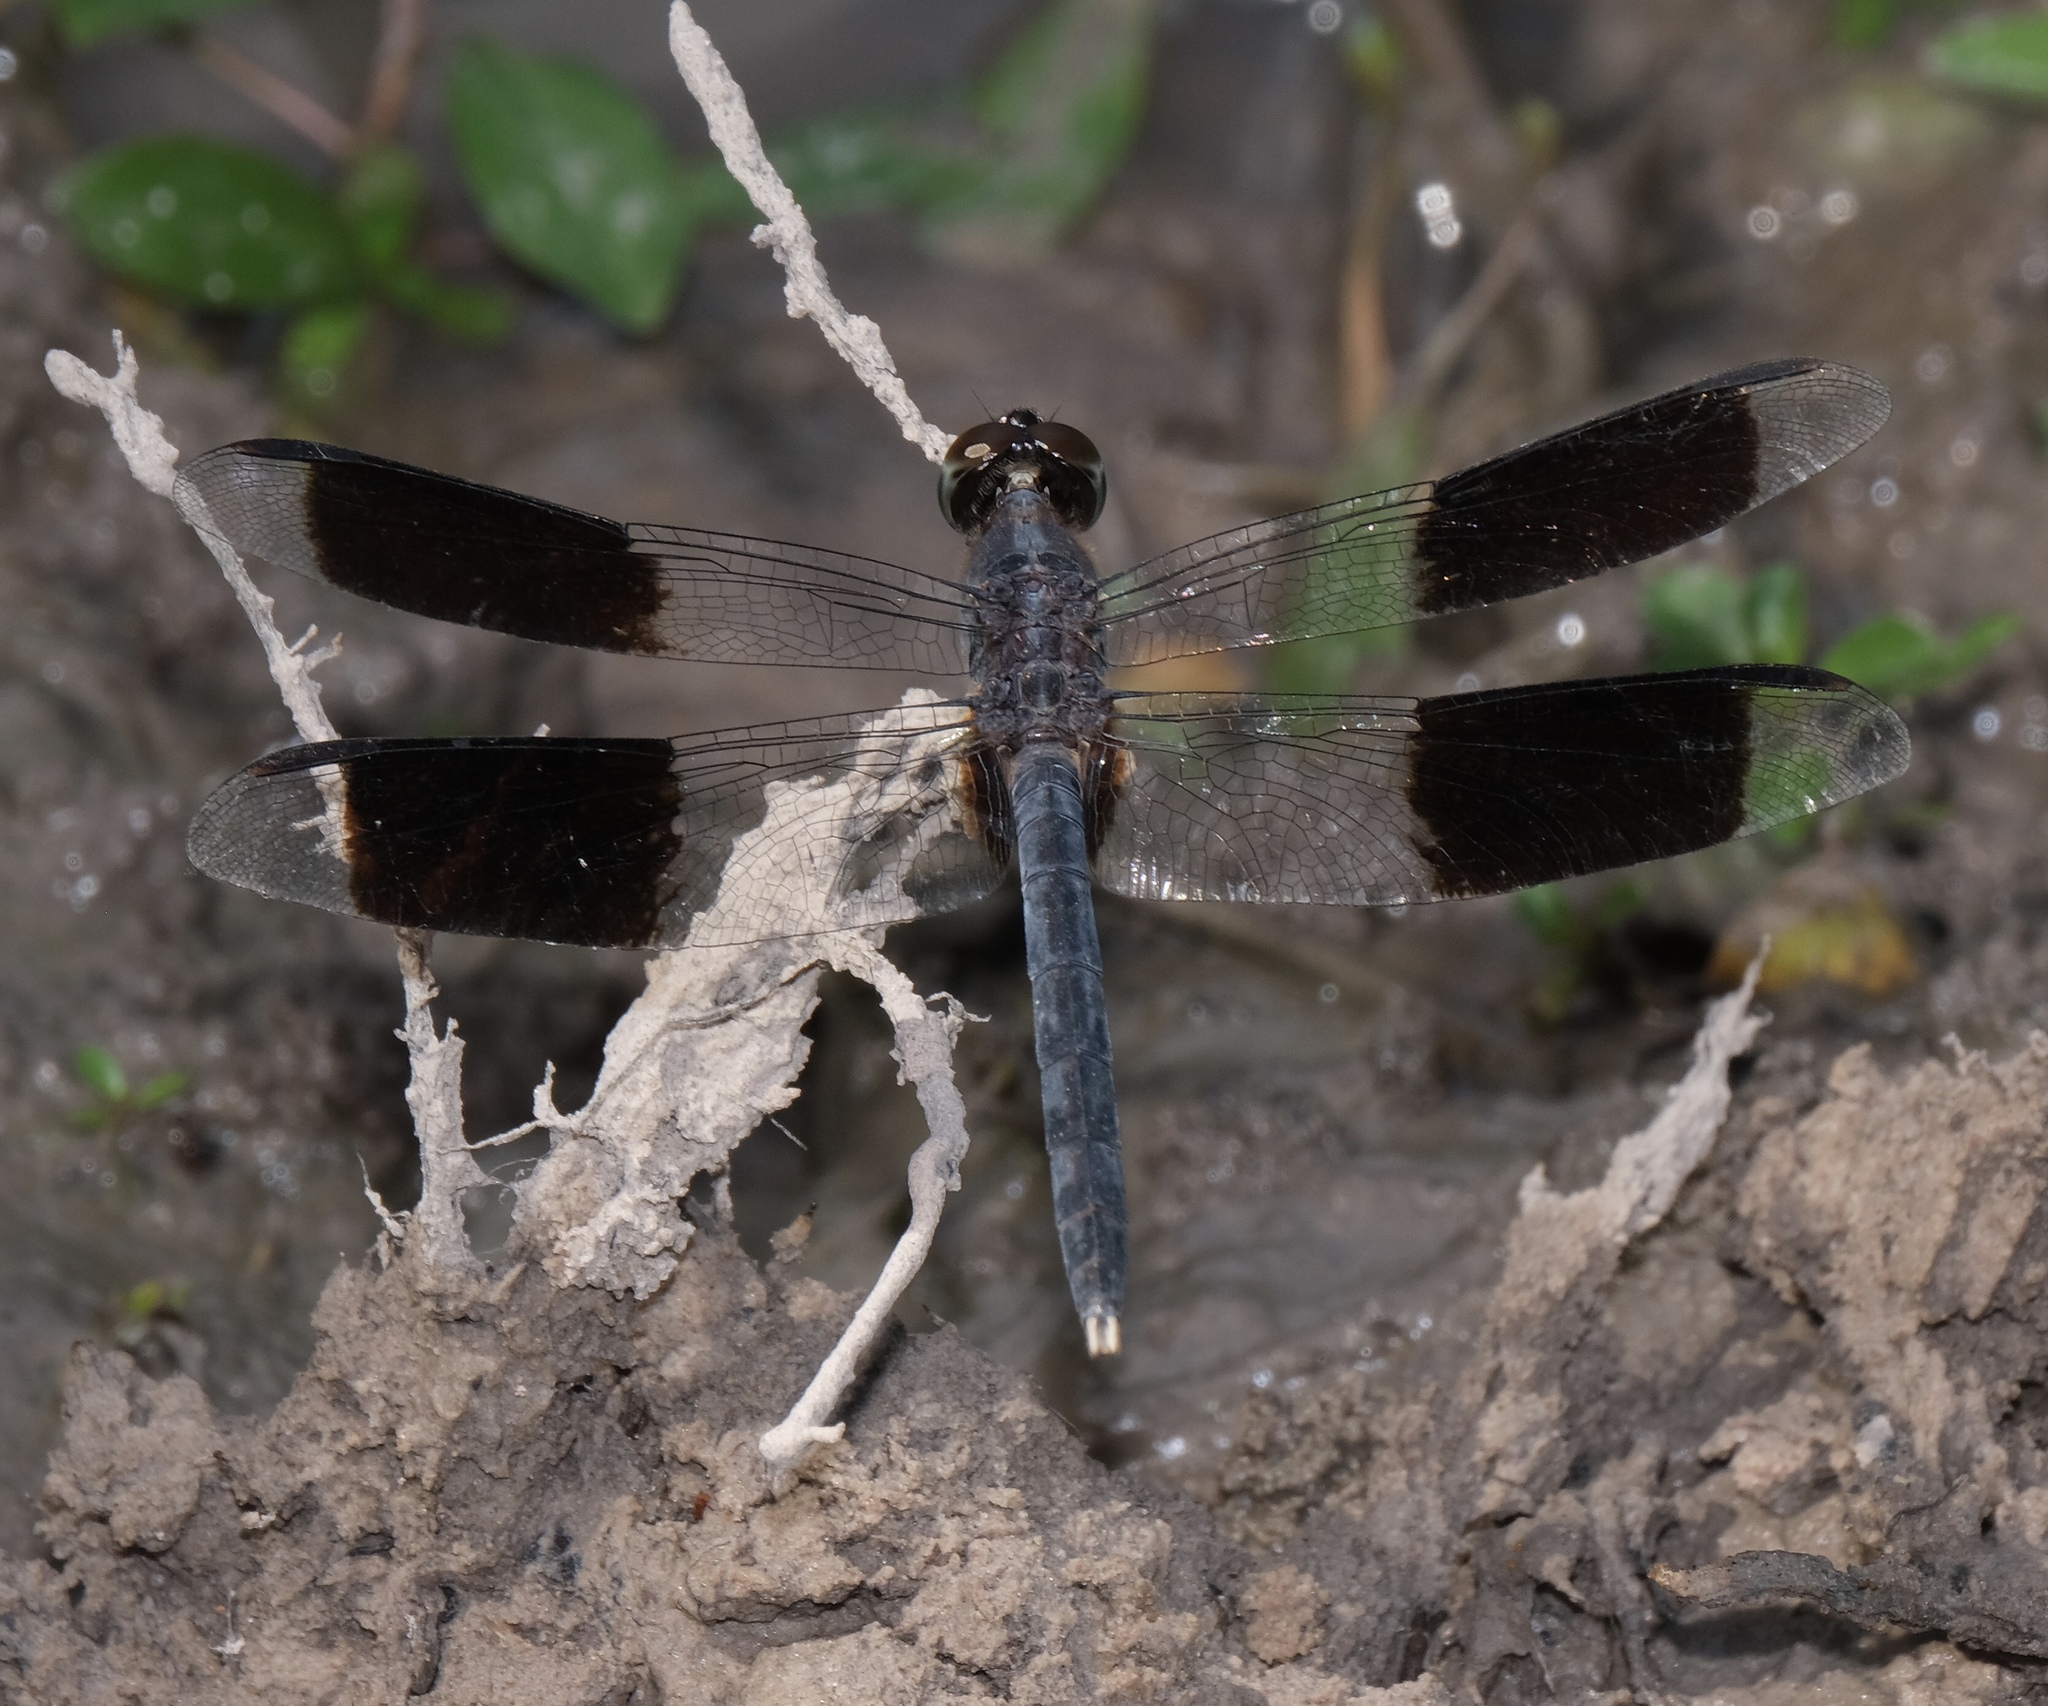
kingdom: Animalia
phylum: Arthropoda
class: Insecta
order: Odonata
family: Libellulidae
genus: Erythrodiplax
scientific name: Erythrodiplax umbrata
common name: Band-winged dragonlet
